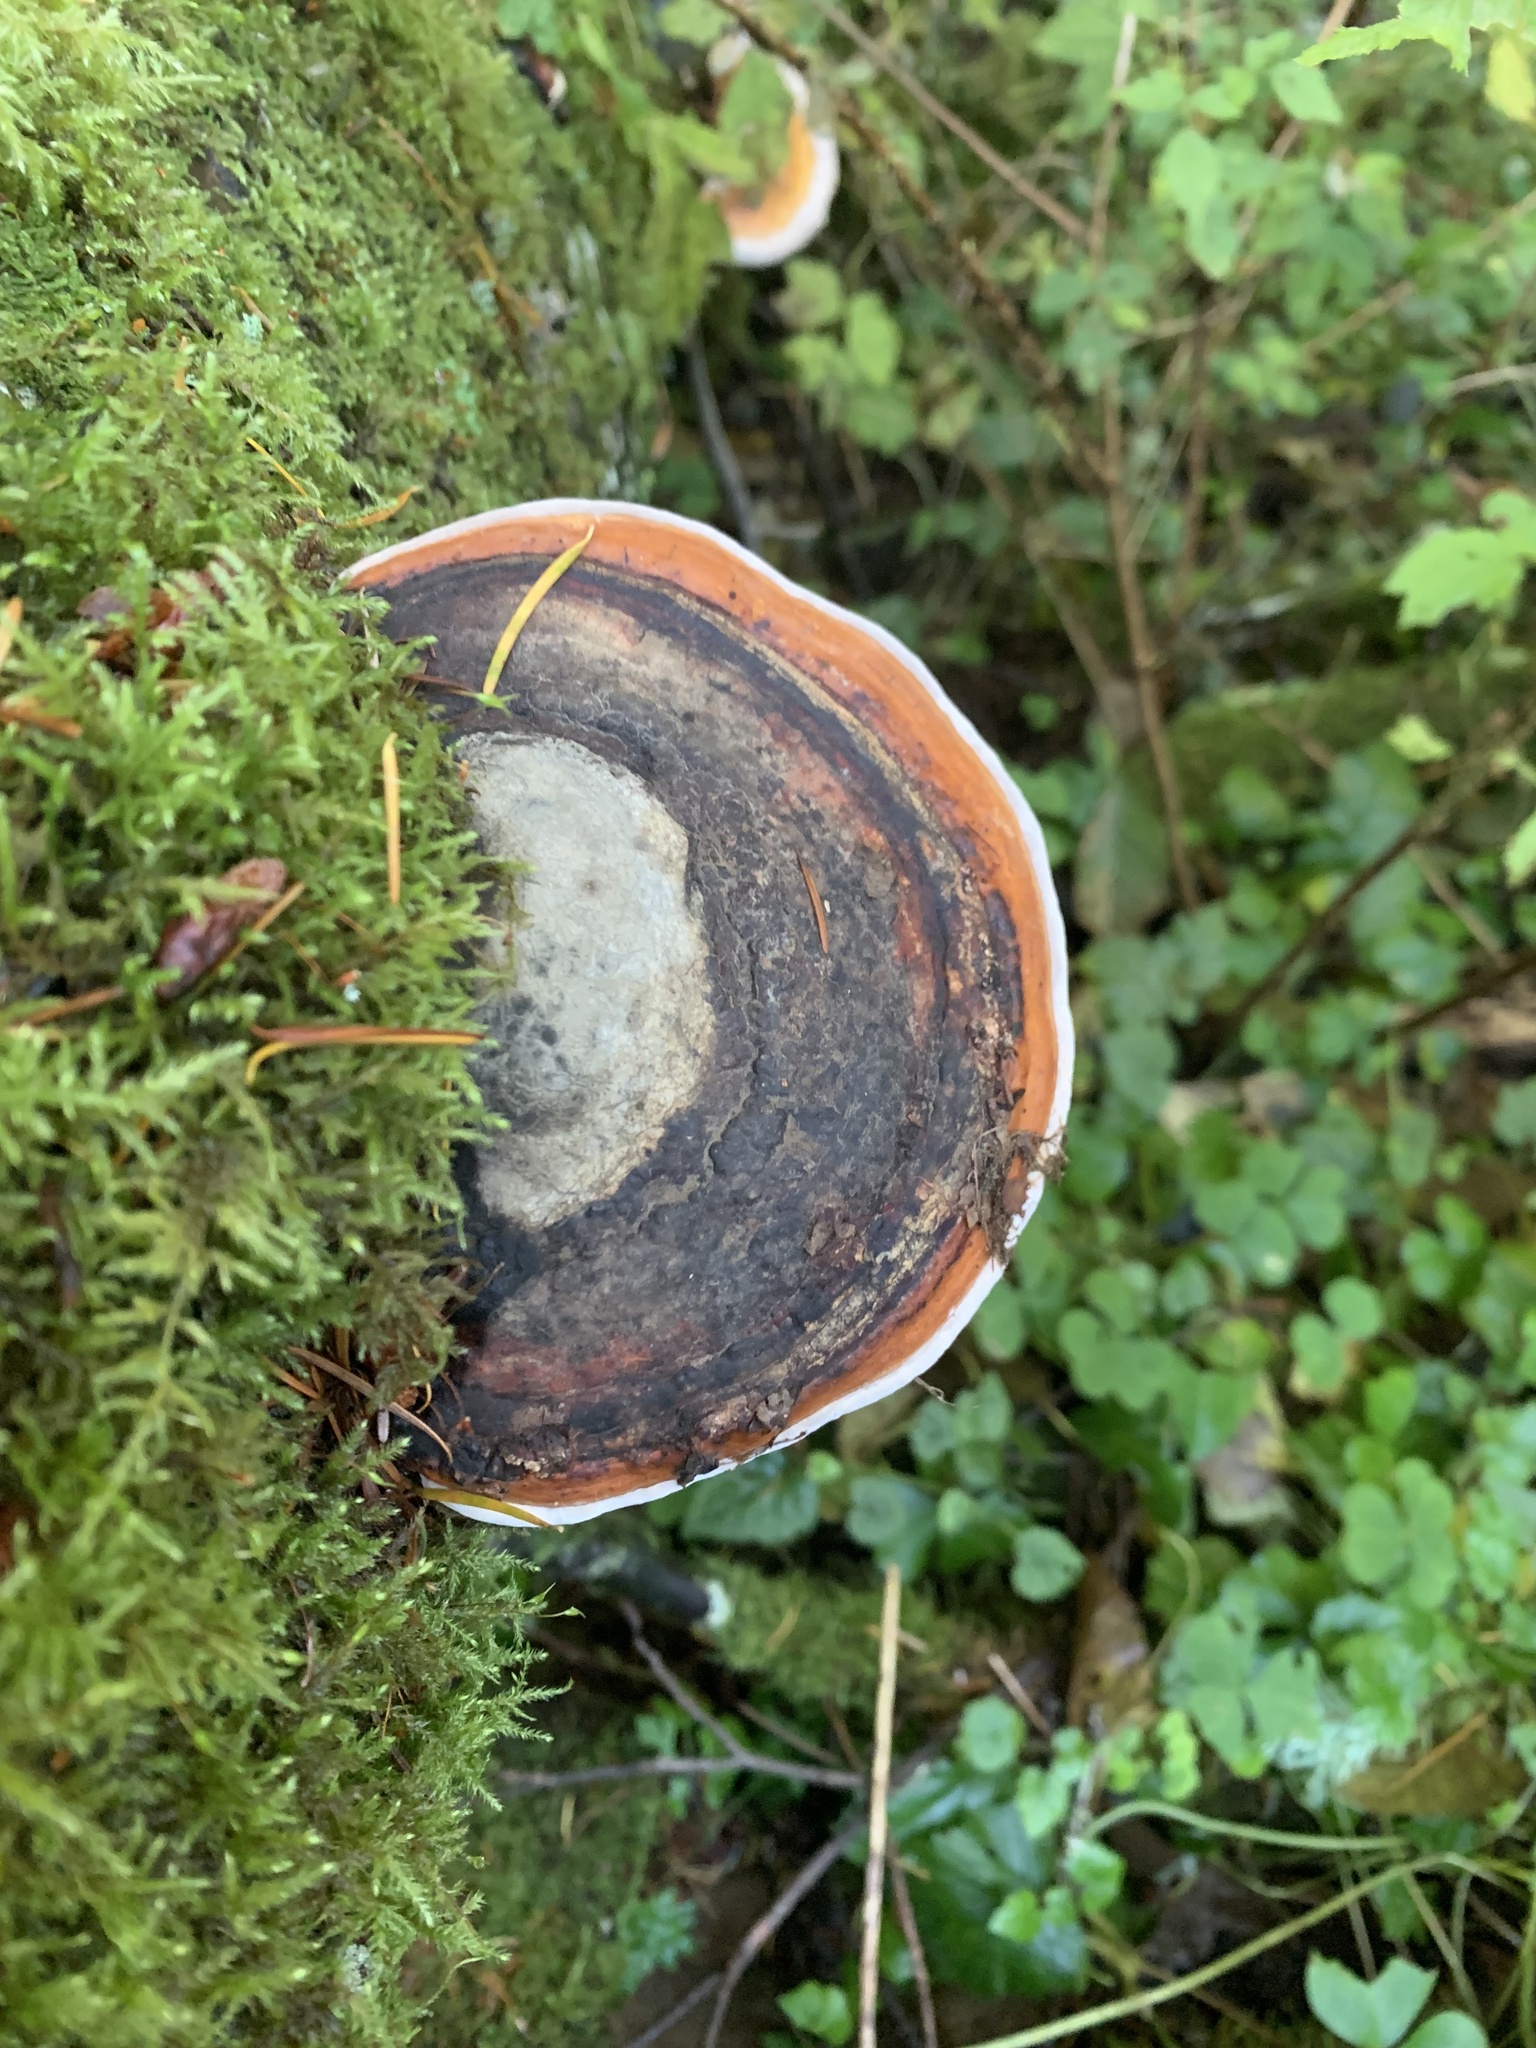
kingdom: Fungi
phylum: Basidiomycota
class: Agaricomycetes
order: Polyporales
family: Fomitopsidaceae
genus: Fomitopsis
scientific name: Fomitopsis mounceae
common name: Northern red belt
